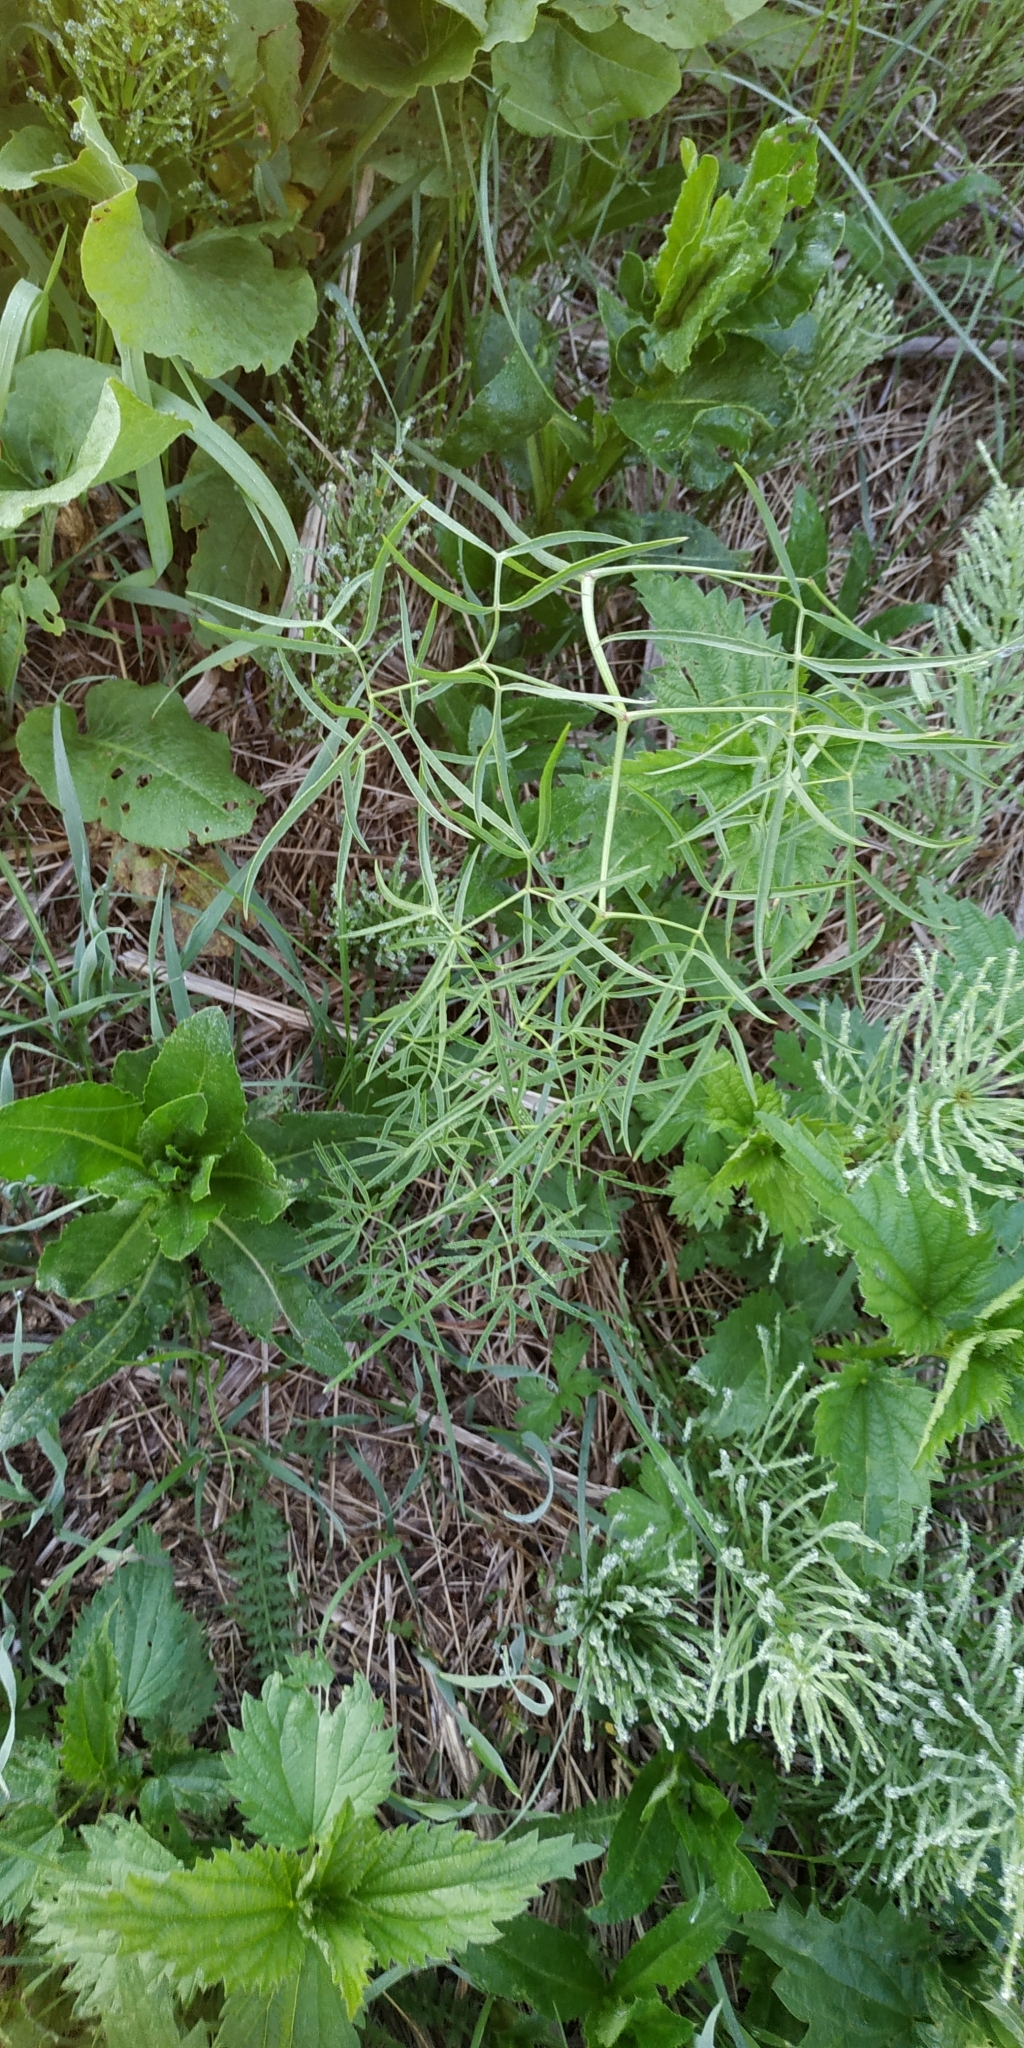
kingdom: Plantae
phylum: Tracheophyta
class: Magnoliopsida
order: Apiales
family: Apiaceae
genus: Cenolophium
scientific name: Cenolophium fischeri
